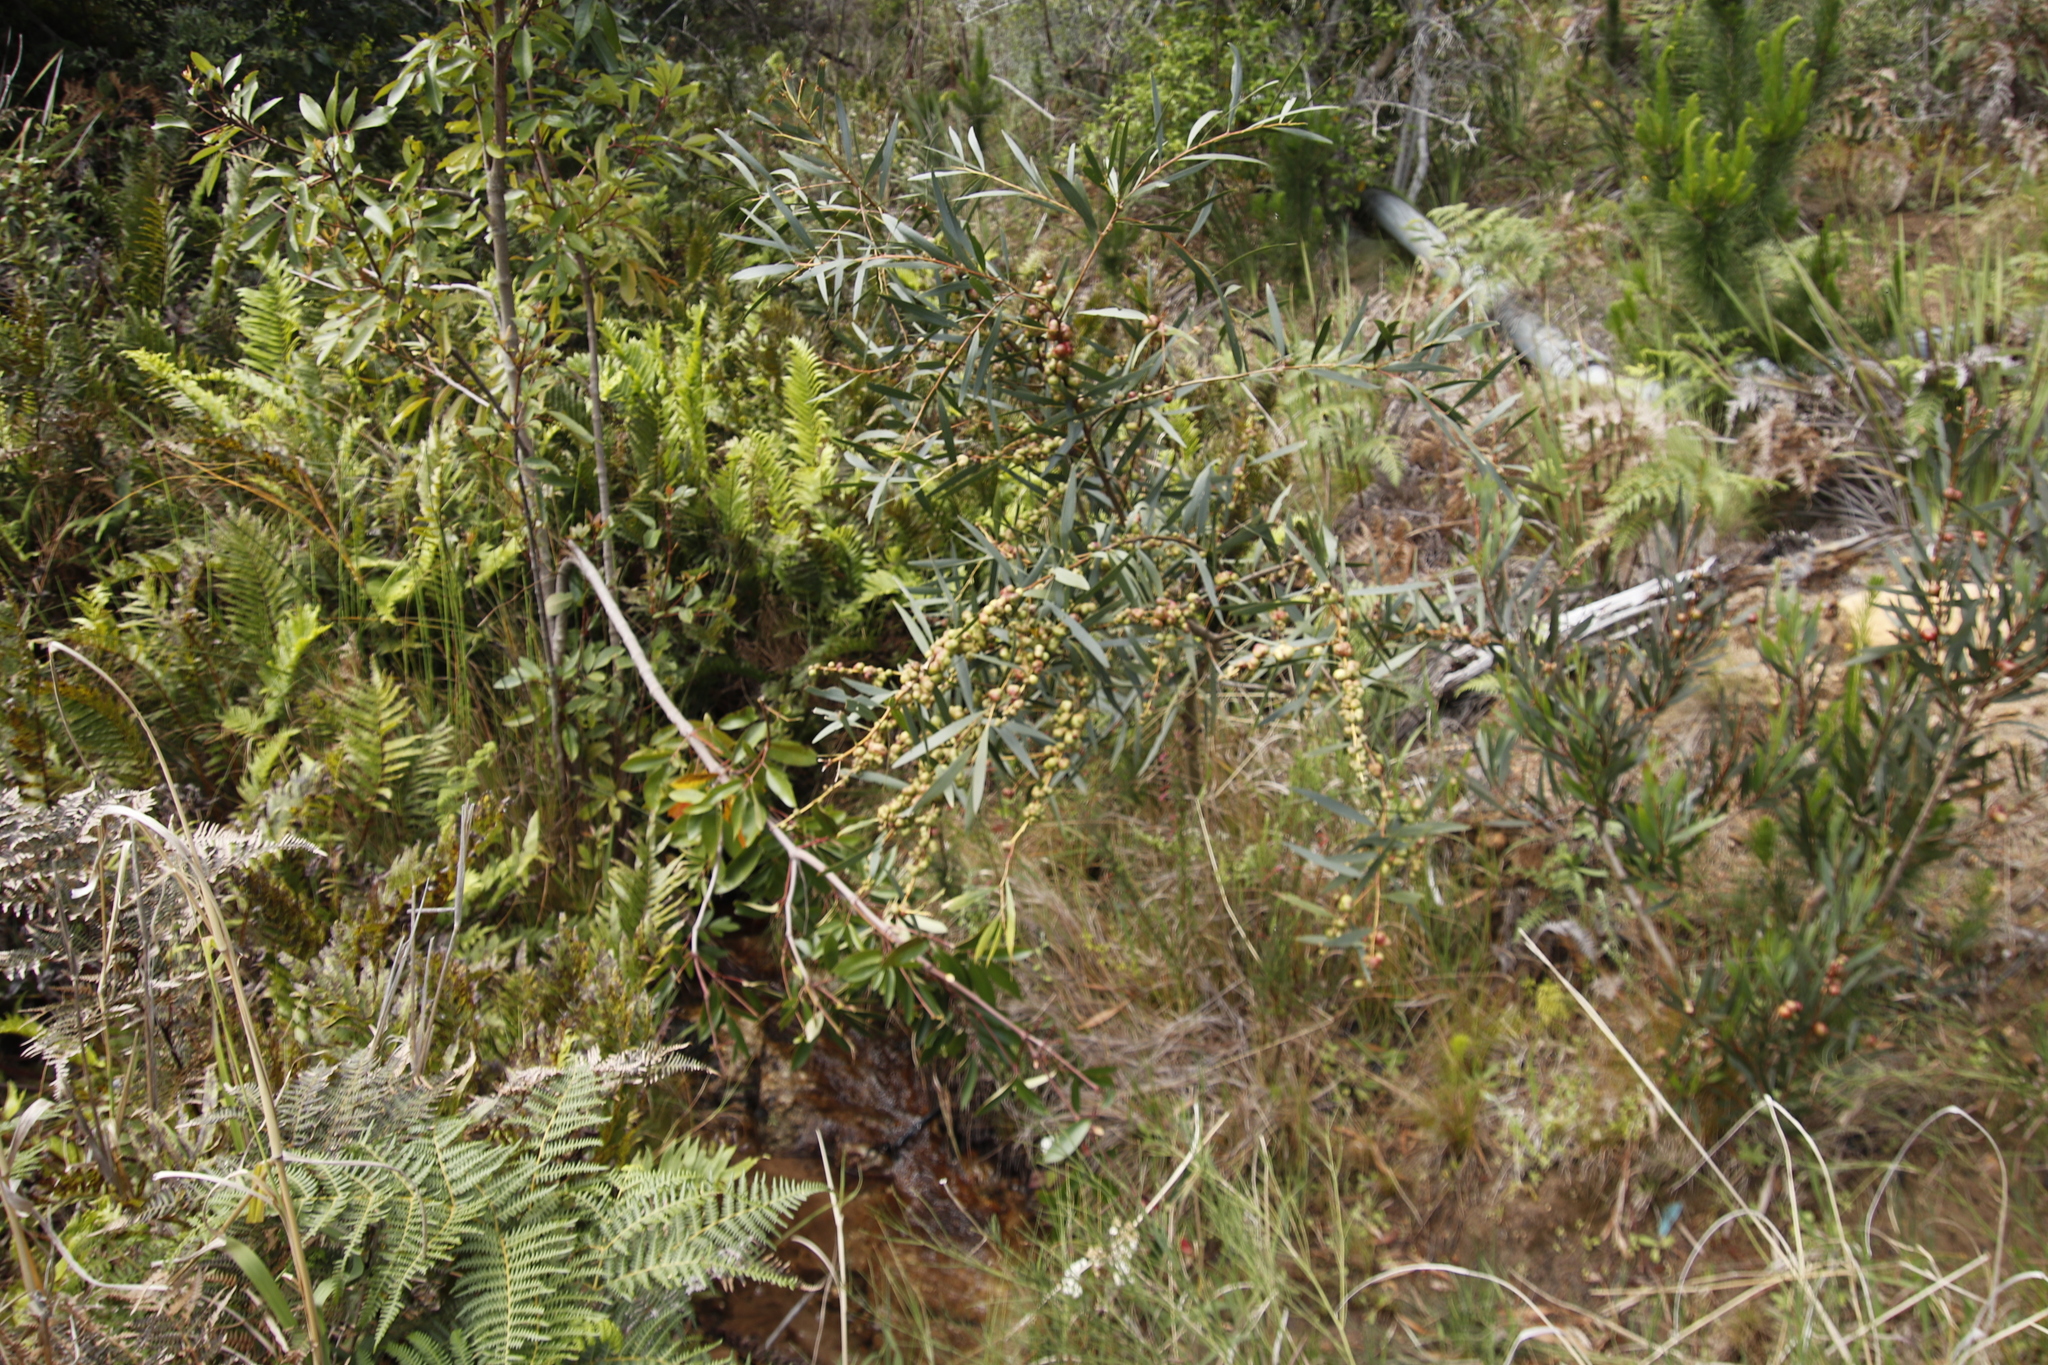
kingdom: Plantae
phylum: Tracheophyta
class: Magnoliopsida
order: Fabales
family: Fabaceae
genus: Acacia
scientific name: Acacia longifolia
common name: Sydney golden wattle
